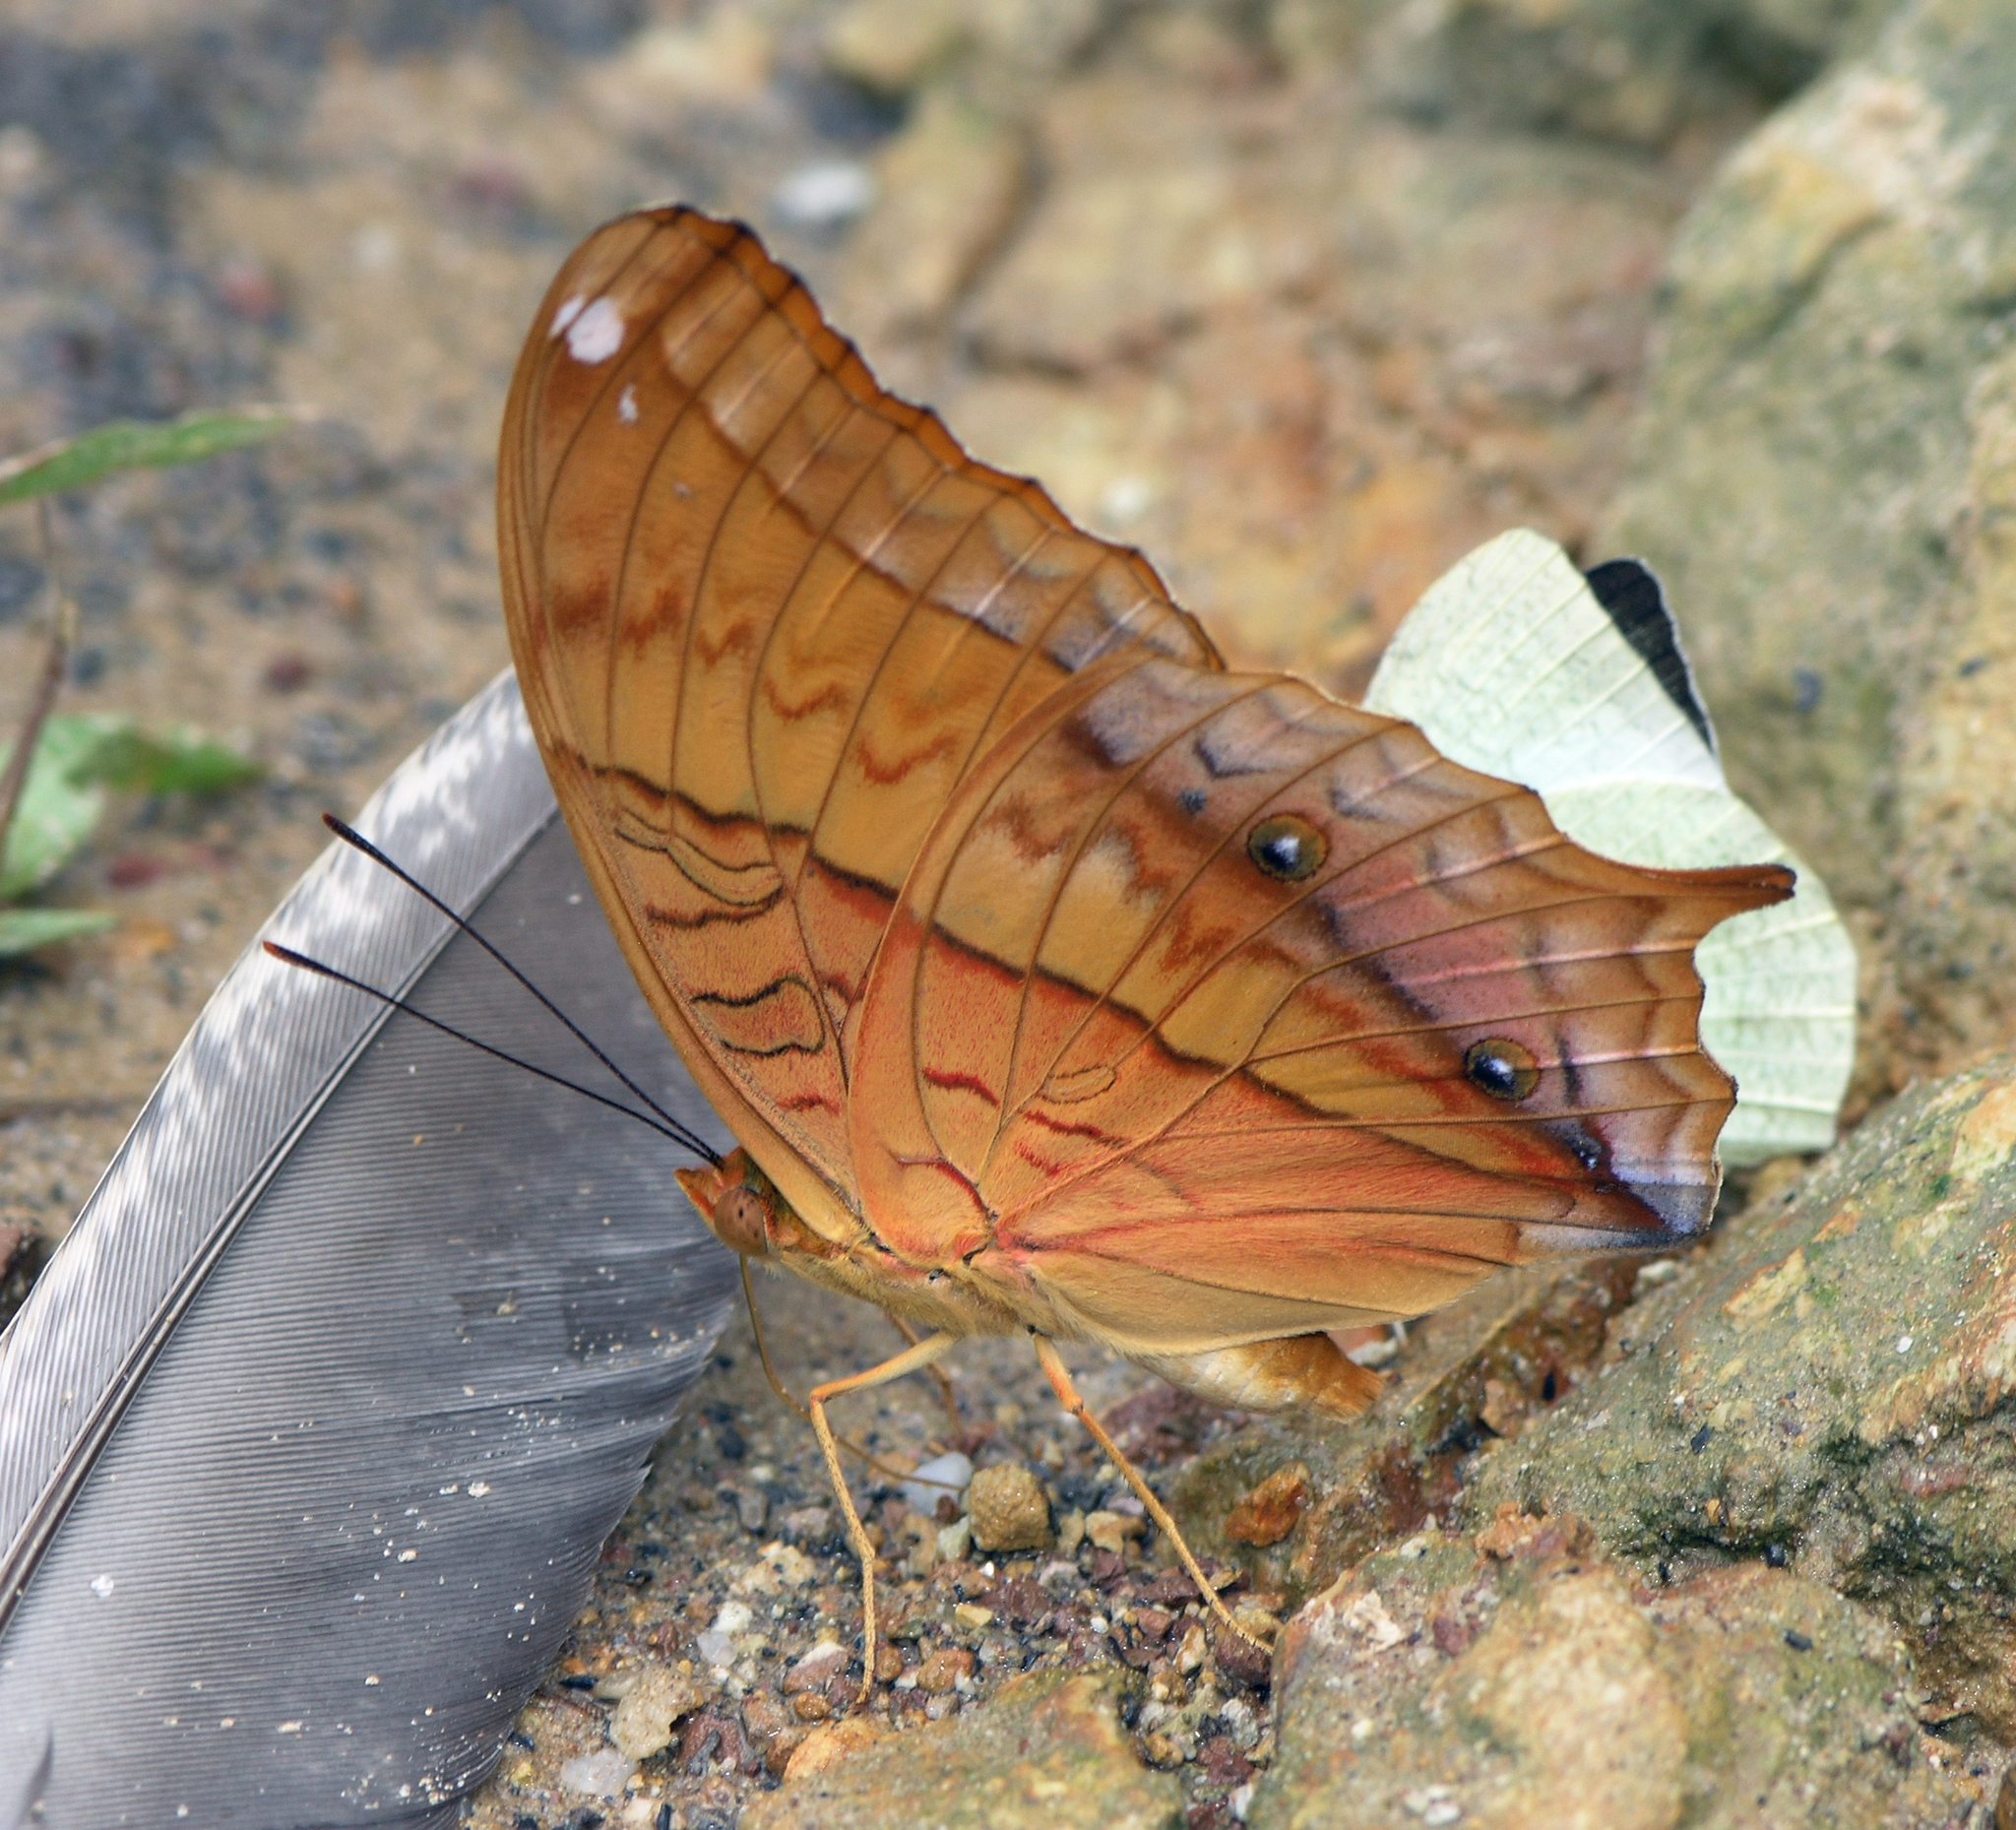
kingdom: Animalia
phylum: Arthropoda
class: Insecta
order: Lepidoptera
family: Nymphalidae
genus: Vindula
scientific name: Vindula deione
